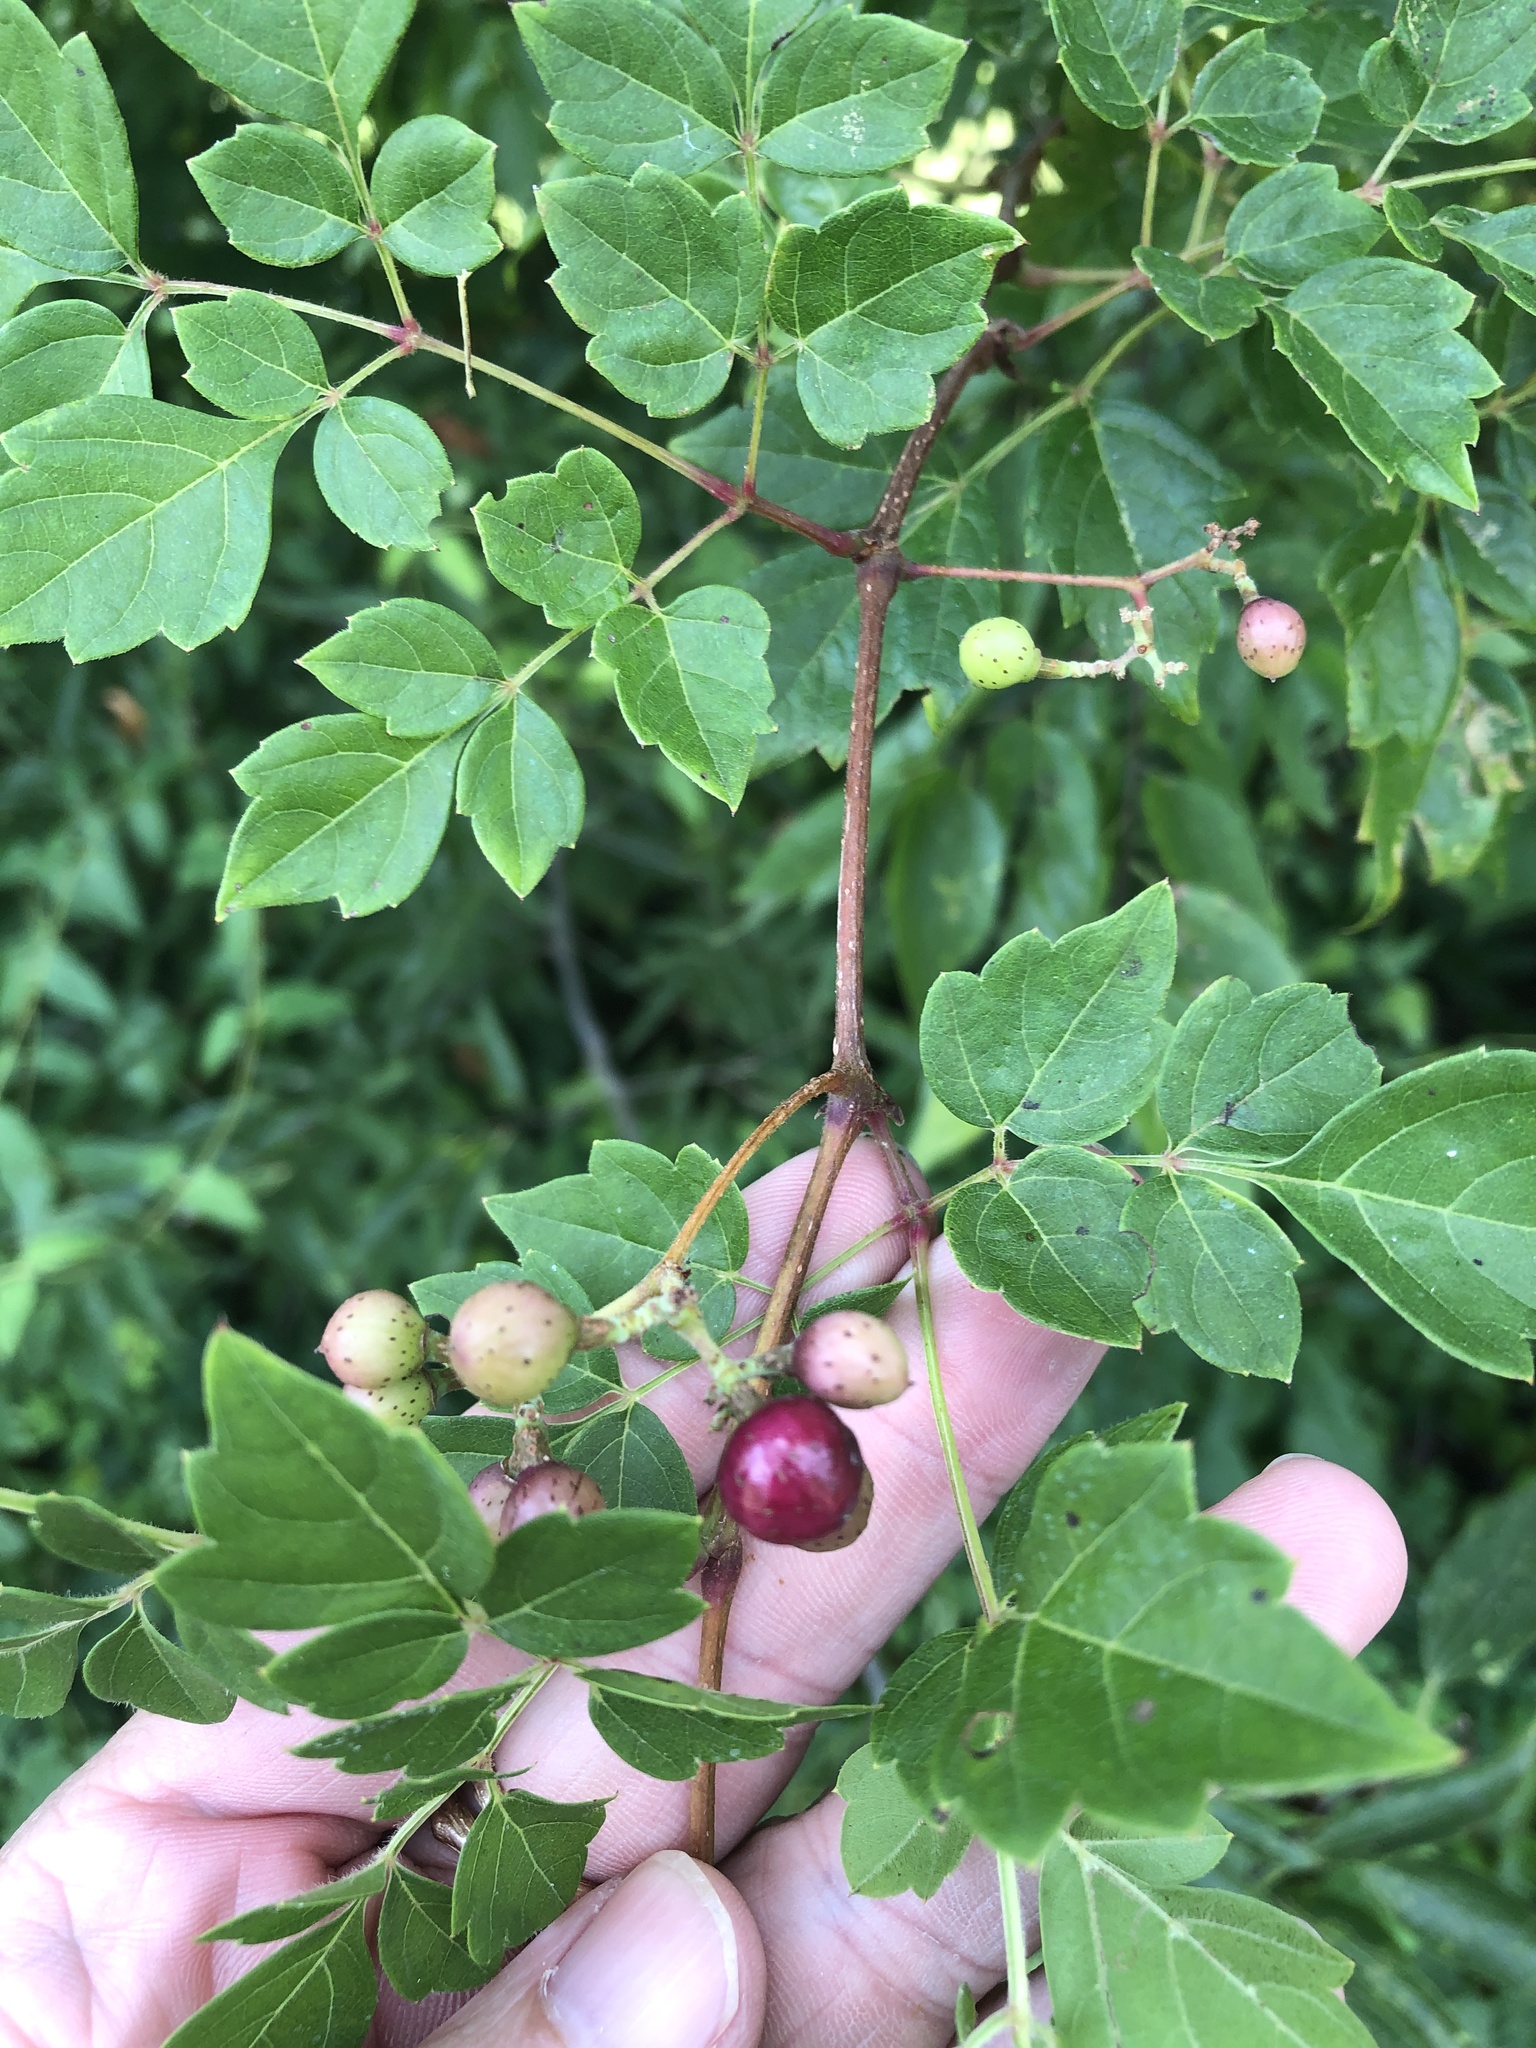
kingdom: Plantae
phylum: Tracheophyta
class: Magnoliopsida
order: Vitales
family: Vitaceae
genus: Nekemias
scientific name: Nekemias arborea
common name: Peppervine
